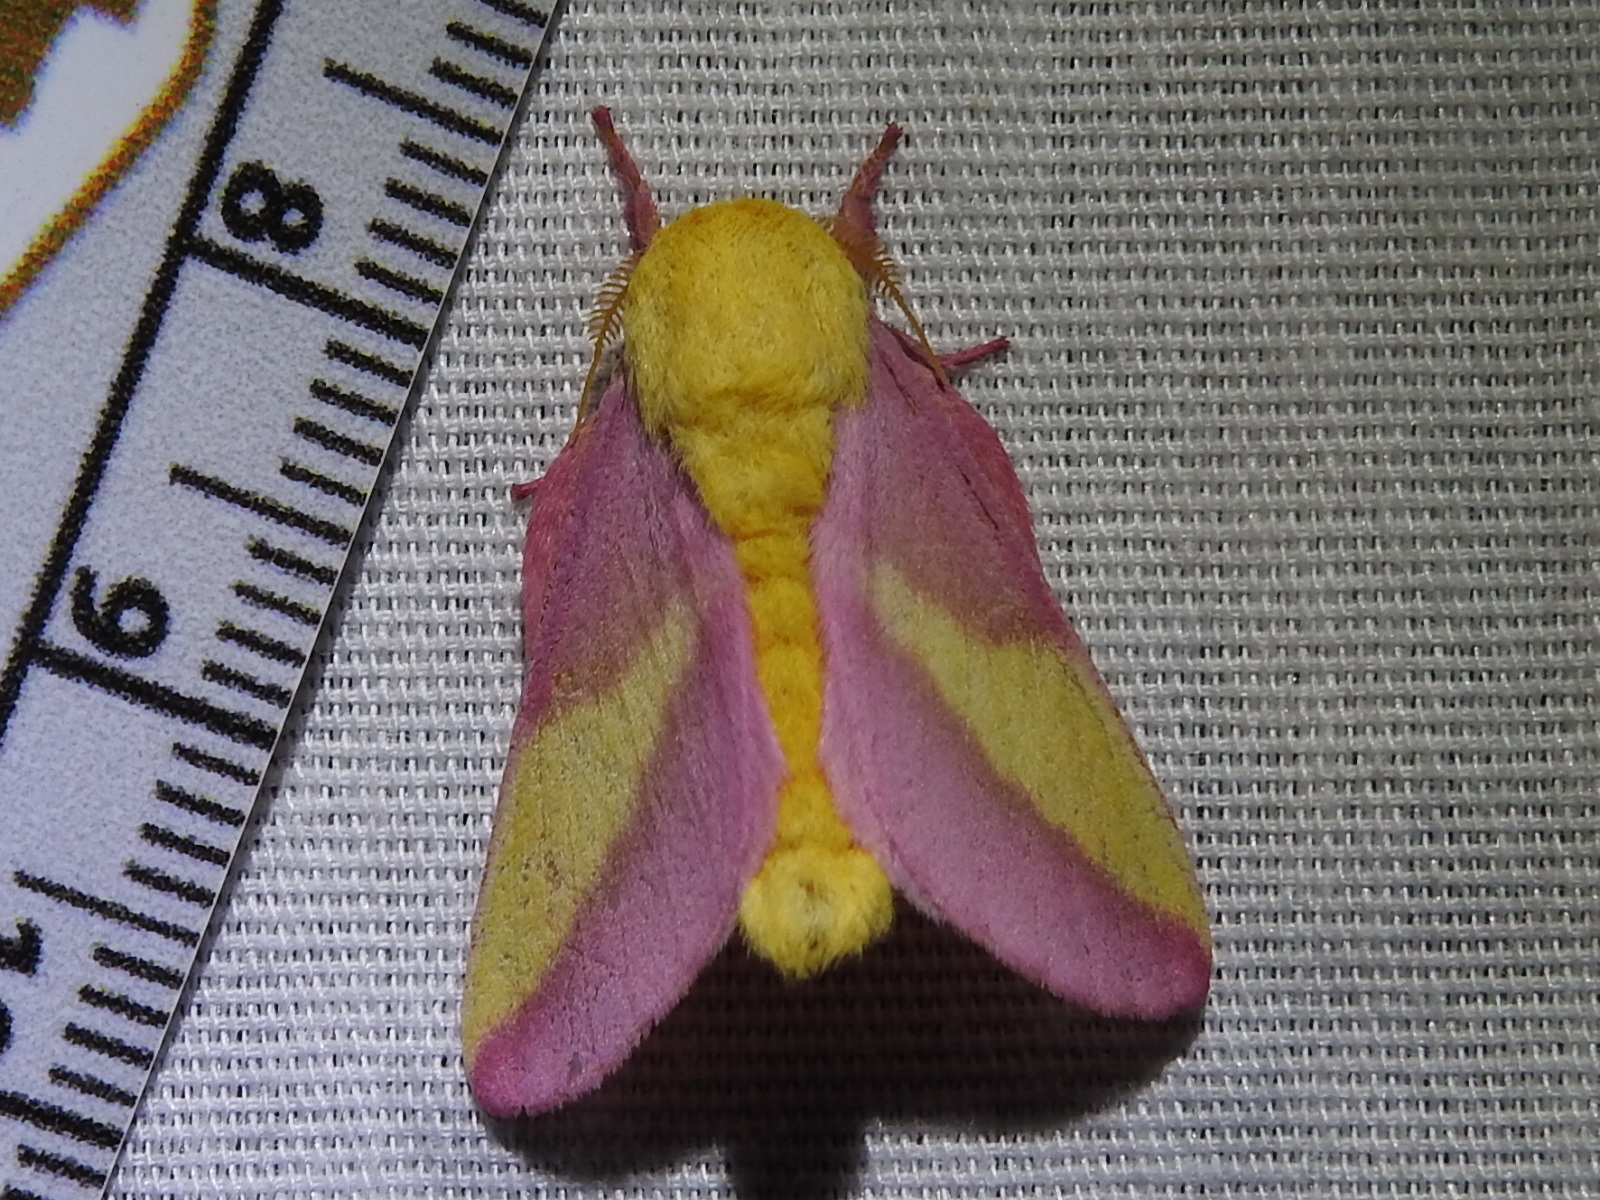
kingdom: Animalia
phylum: Arthropoda
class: Insecta
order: Lepidoptera
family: Saturniidae
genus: Dryocampa
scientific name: Dryocampa rubicunda
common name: Rosy maple moth
